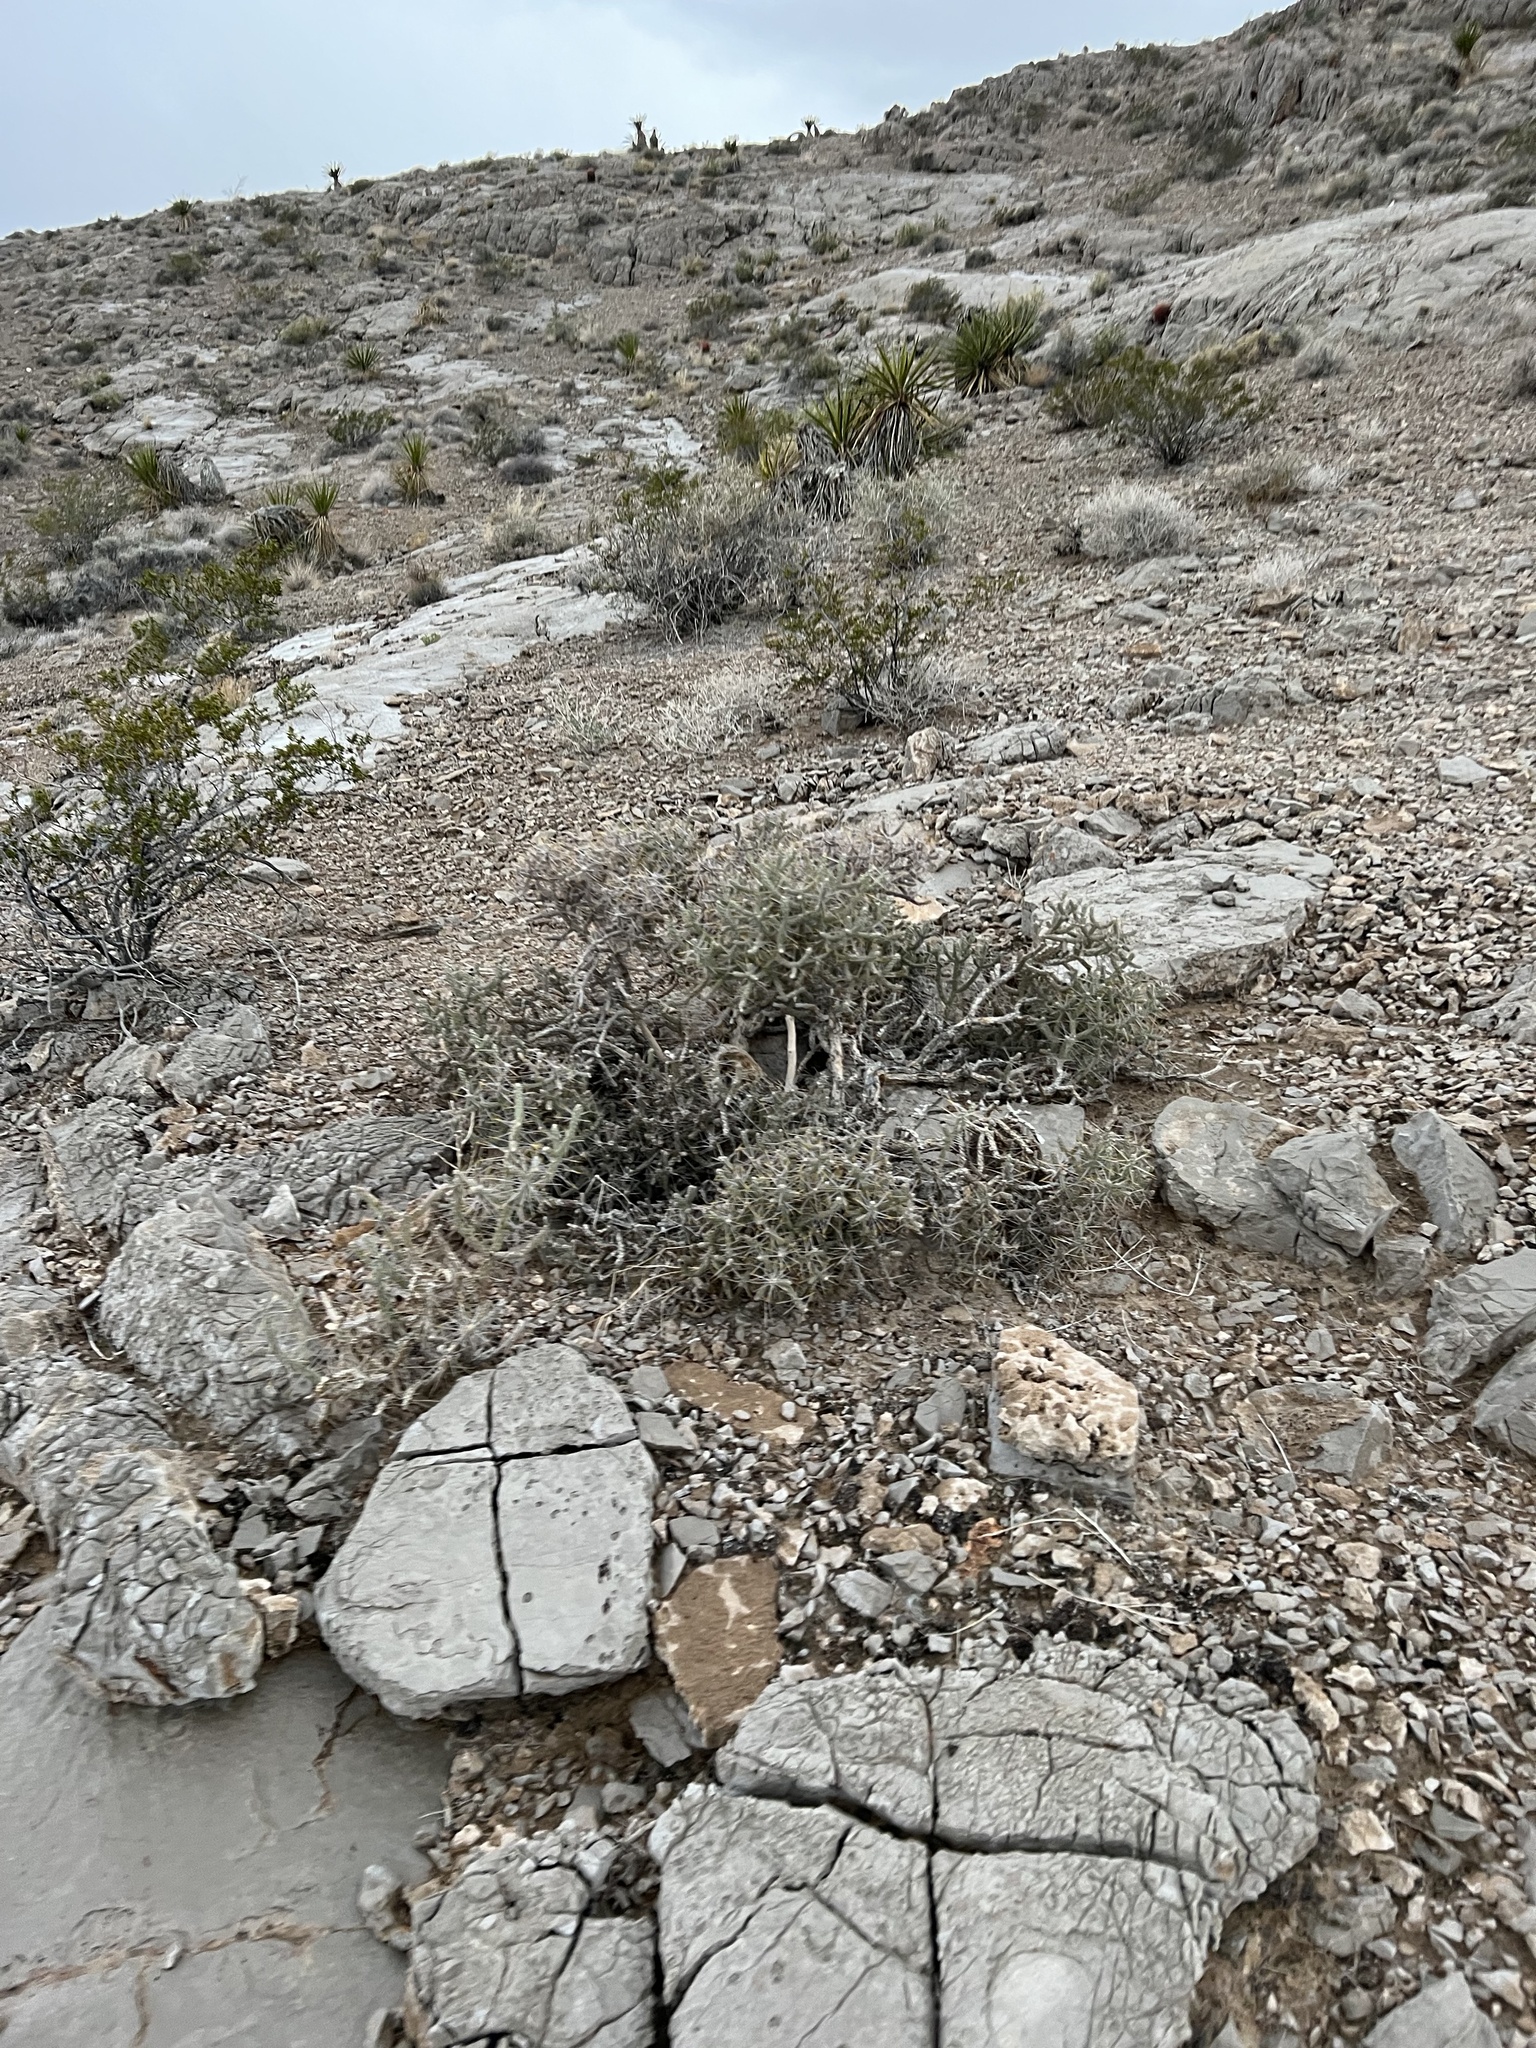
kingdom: Plantae
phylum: Tracheophyta
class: Magnoliopsida
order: Caryophyllales
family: Cactaceae
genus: Cylindropuntia
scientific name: Cylindropuntia ramosissima
